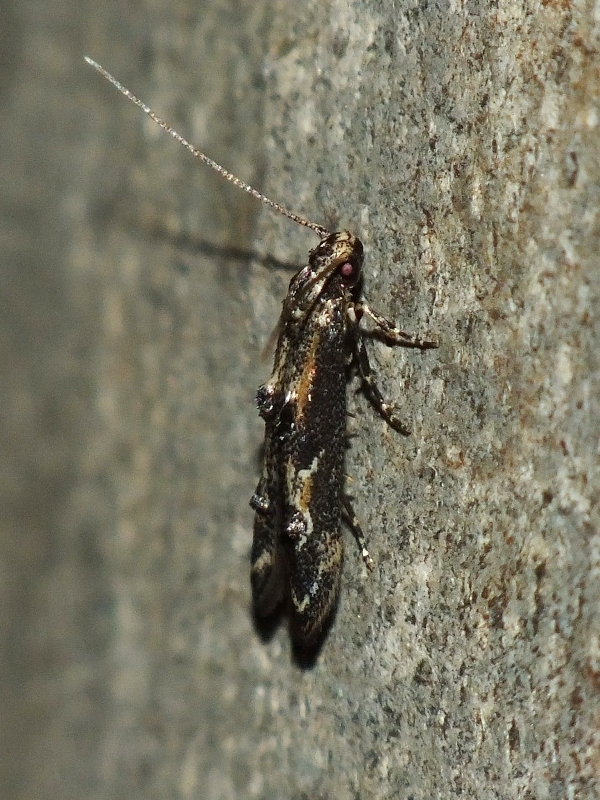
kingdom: Animalia
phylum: Arthropoda
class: Insecta
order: Lepidoptera
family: Elachistidae
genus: Blastodacna
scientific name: Blastodacna atra
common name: Apple pith moth
